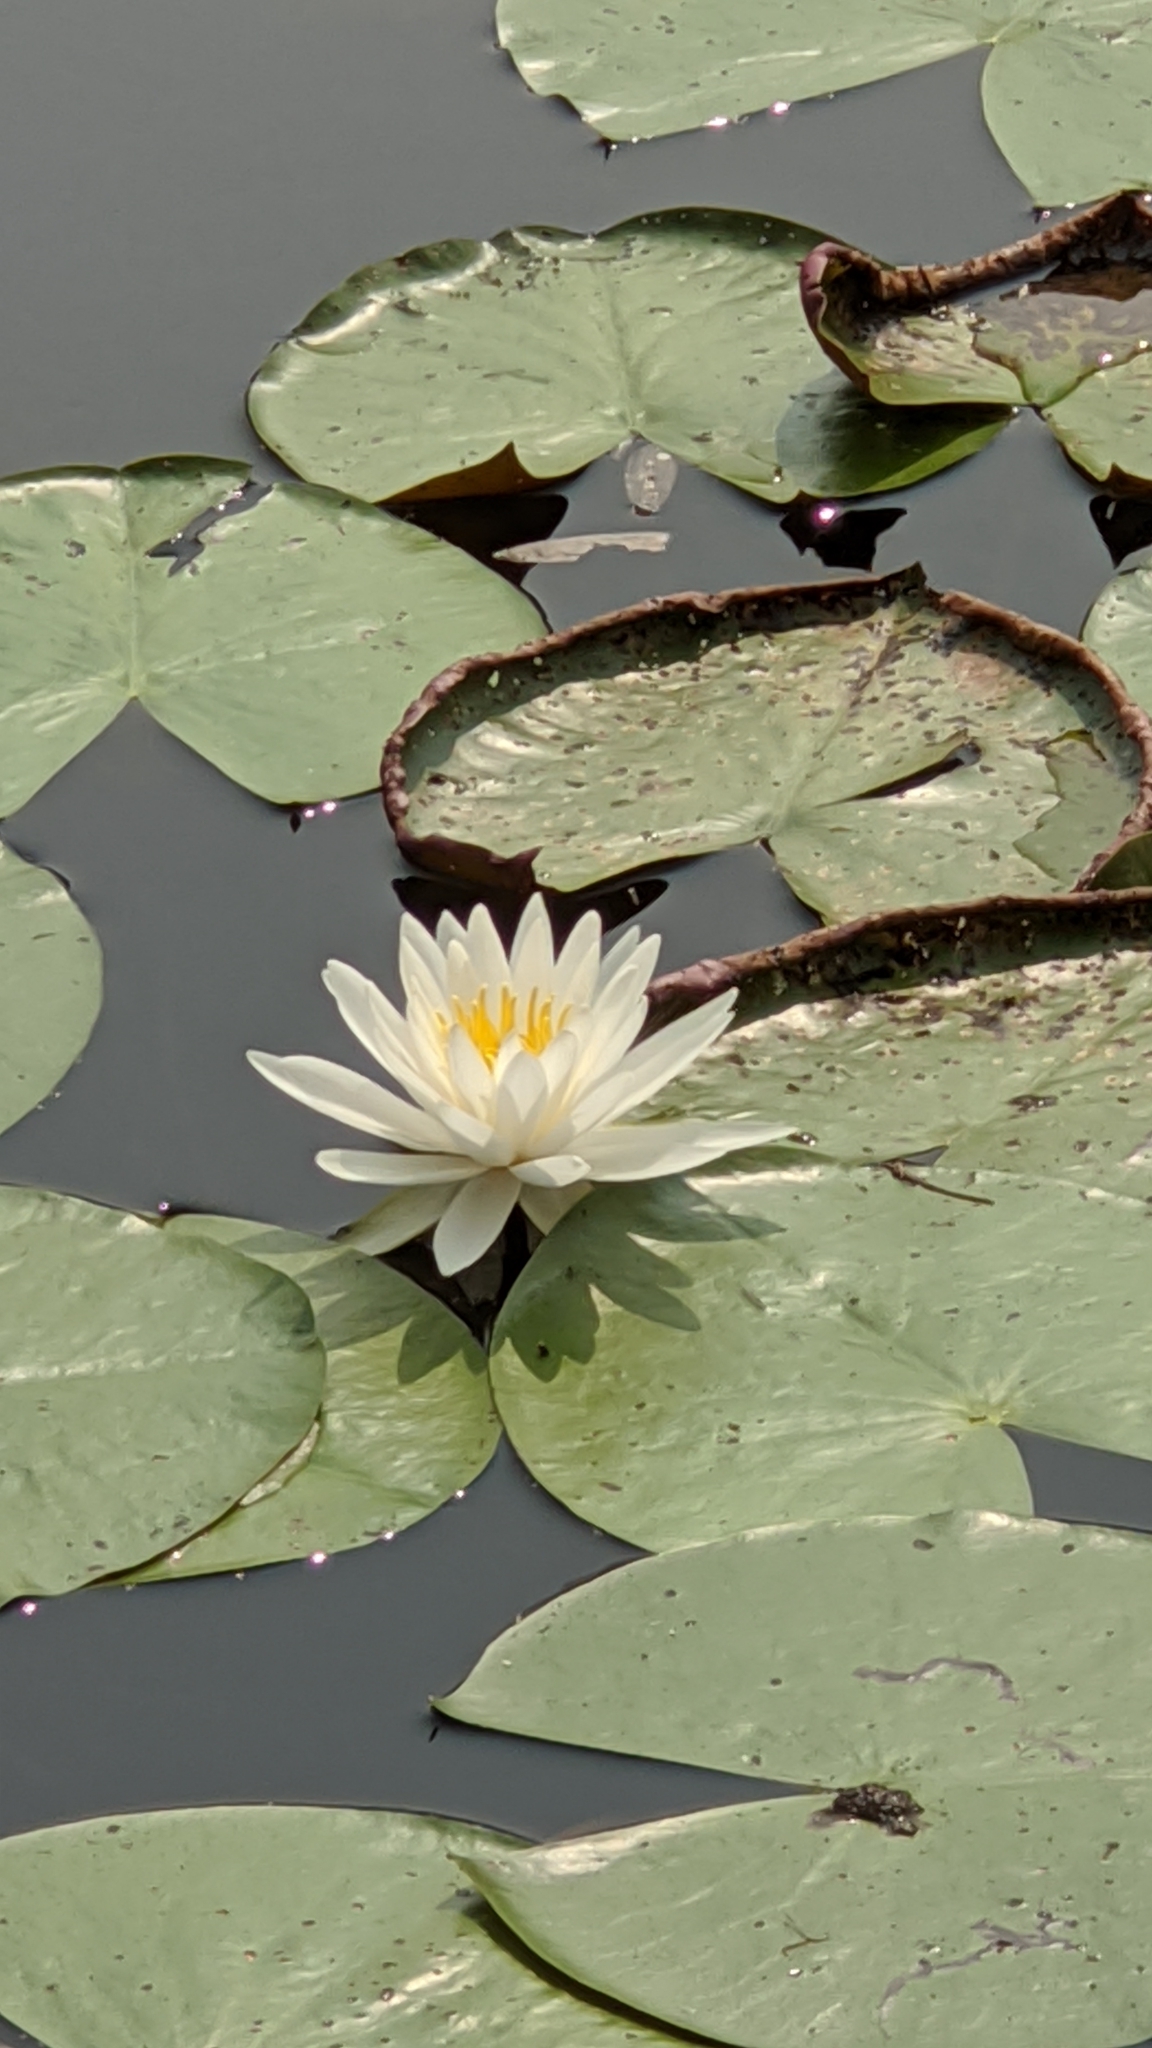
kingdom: Plantae
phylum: Tracheophyta
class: Magnoliopsida
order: Nymphaeales
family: Nymphaeaceae
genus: Nymphaea
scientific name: Nymphaea odorata
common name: Fragrant water-lily
